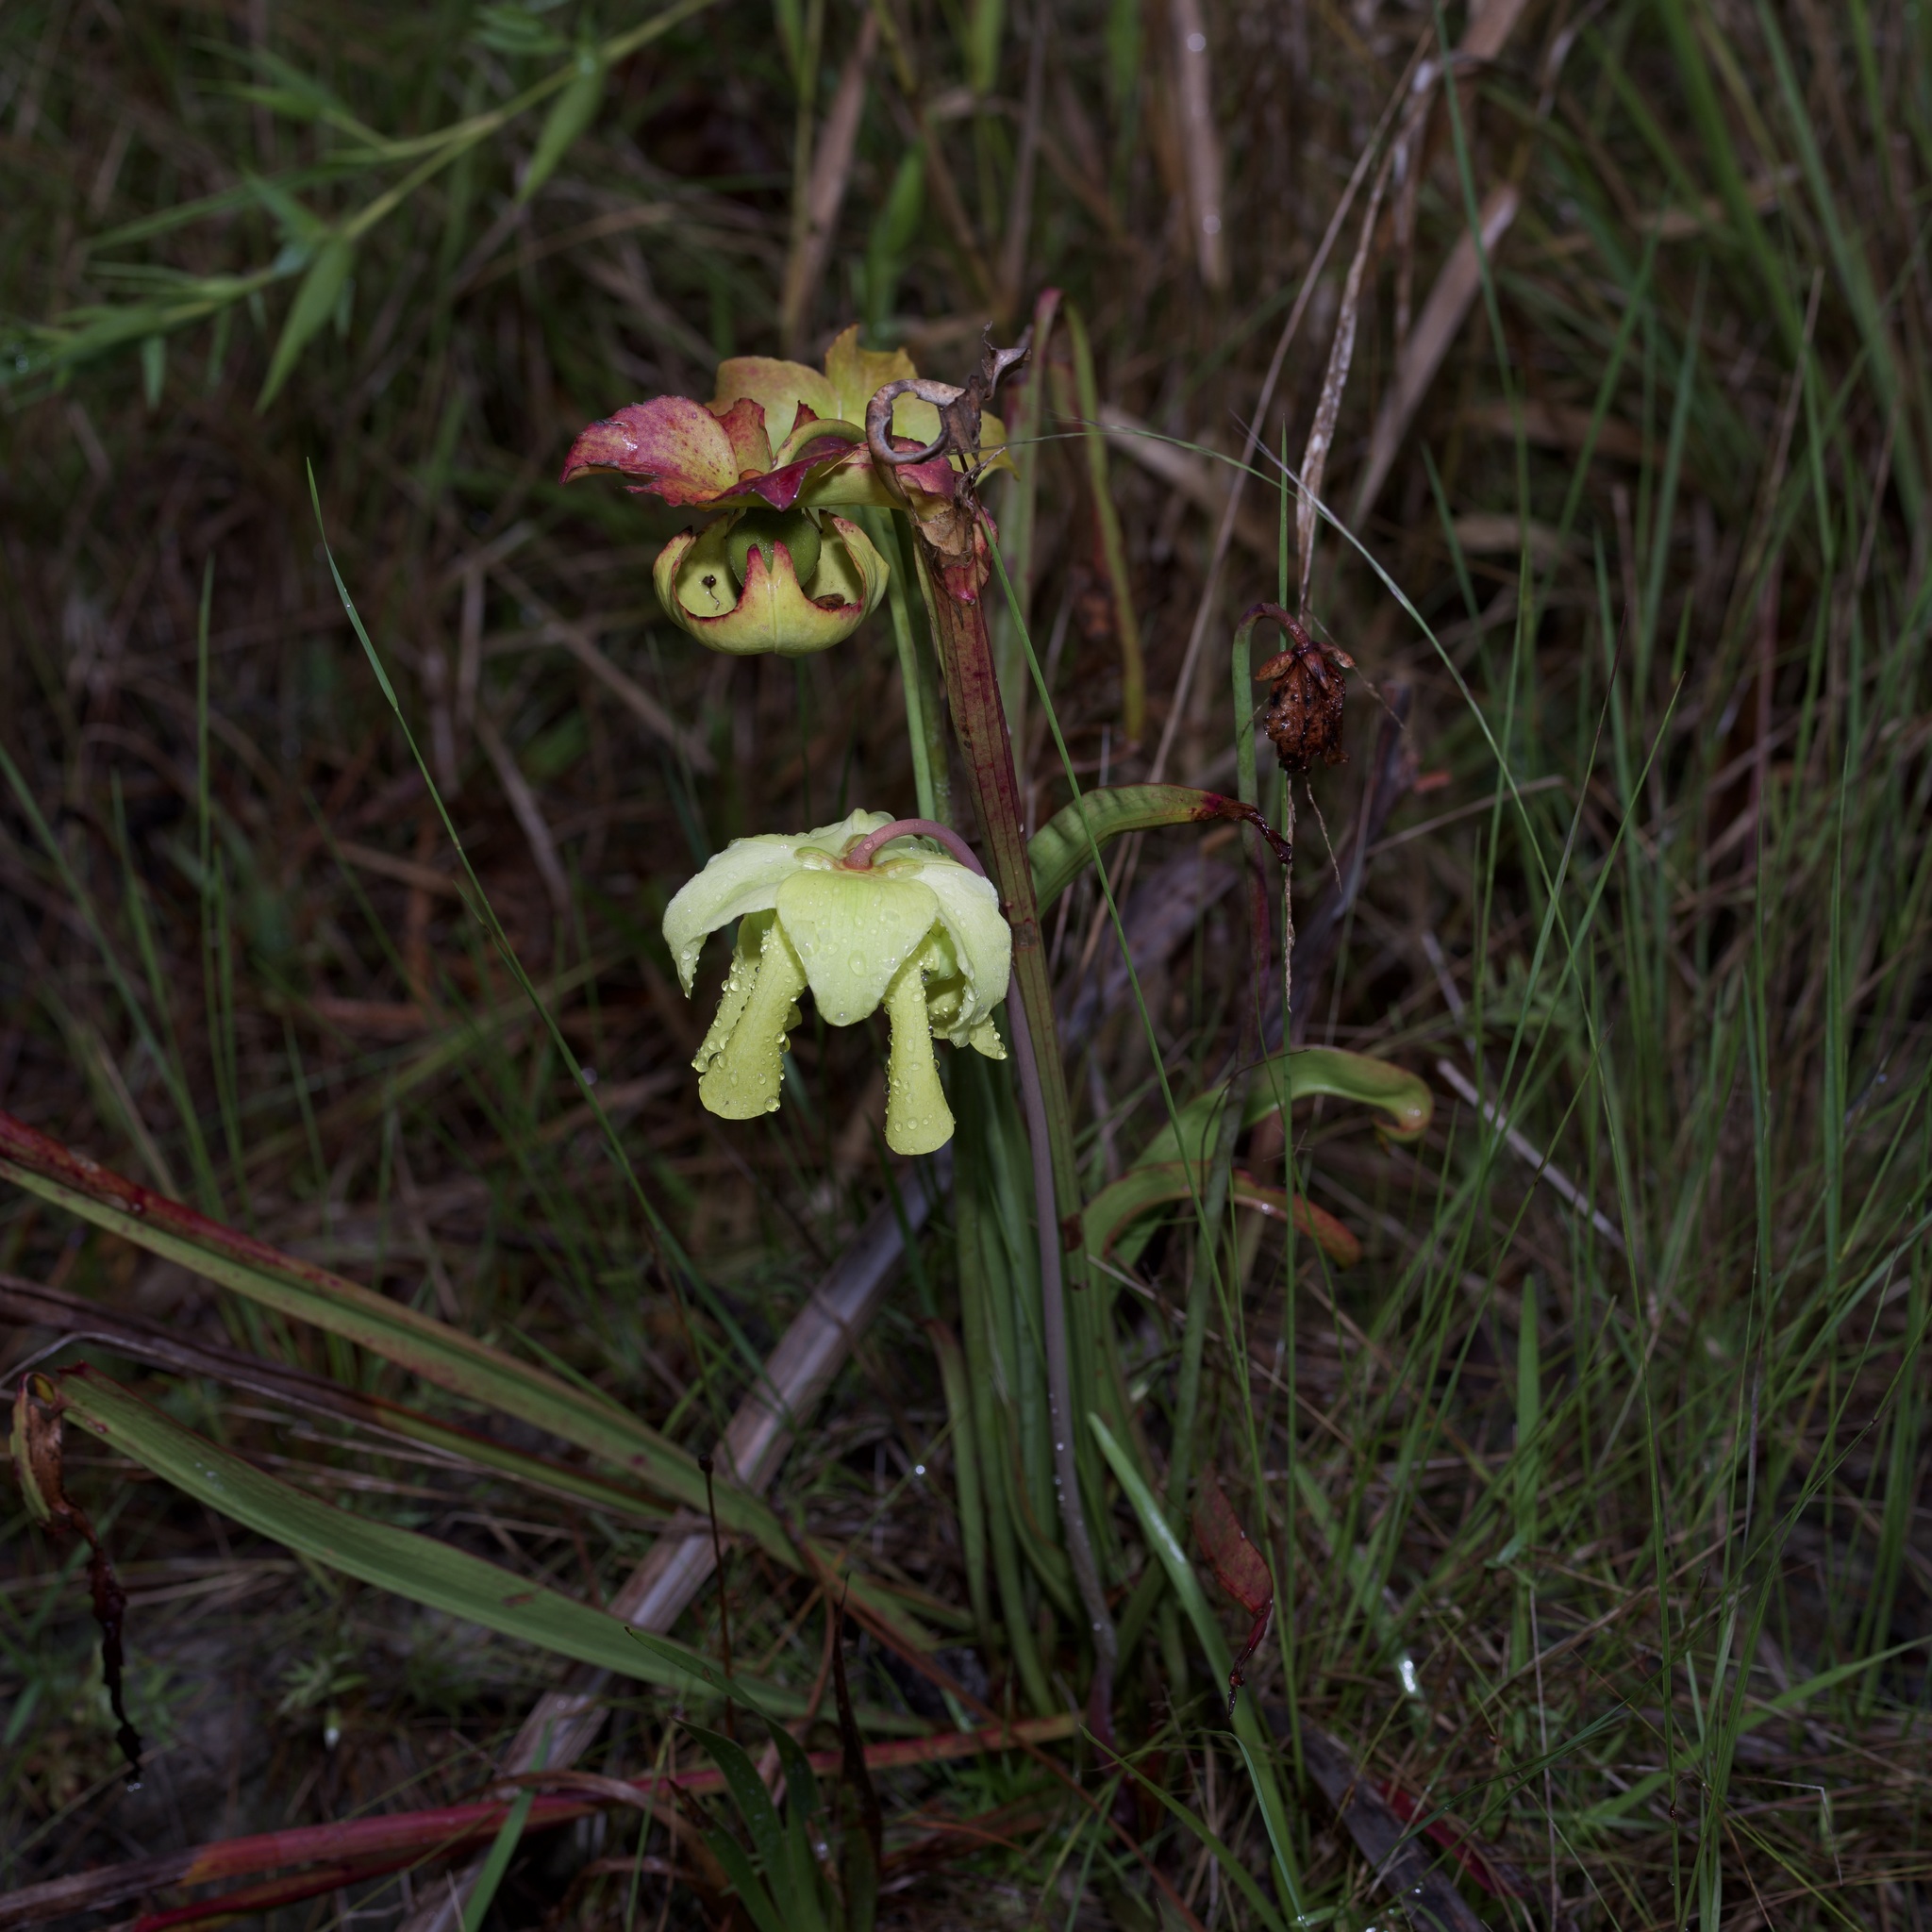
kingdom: Plantae
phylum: Tracheophyta
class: Magnoliopsida
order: Ericales
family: Sarraceniaceae
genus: Sarracenia
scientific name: Sarracenia alata
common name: Yellow trumpets
